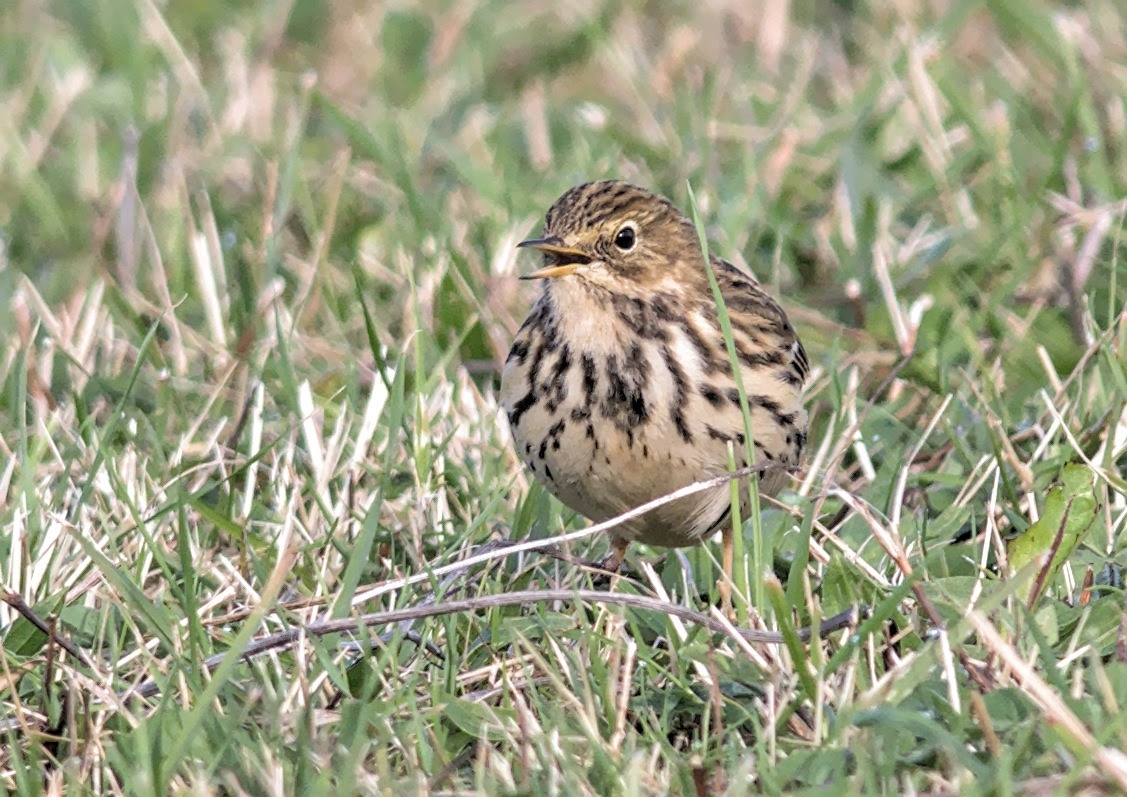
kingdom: Animalia
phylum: Chordata
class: Aves
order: Passeriformes
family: Motacillidae
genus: Anthus
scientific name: Anthus pratensis
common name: Meadow pipit
